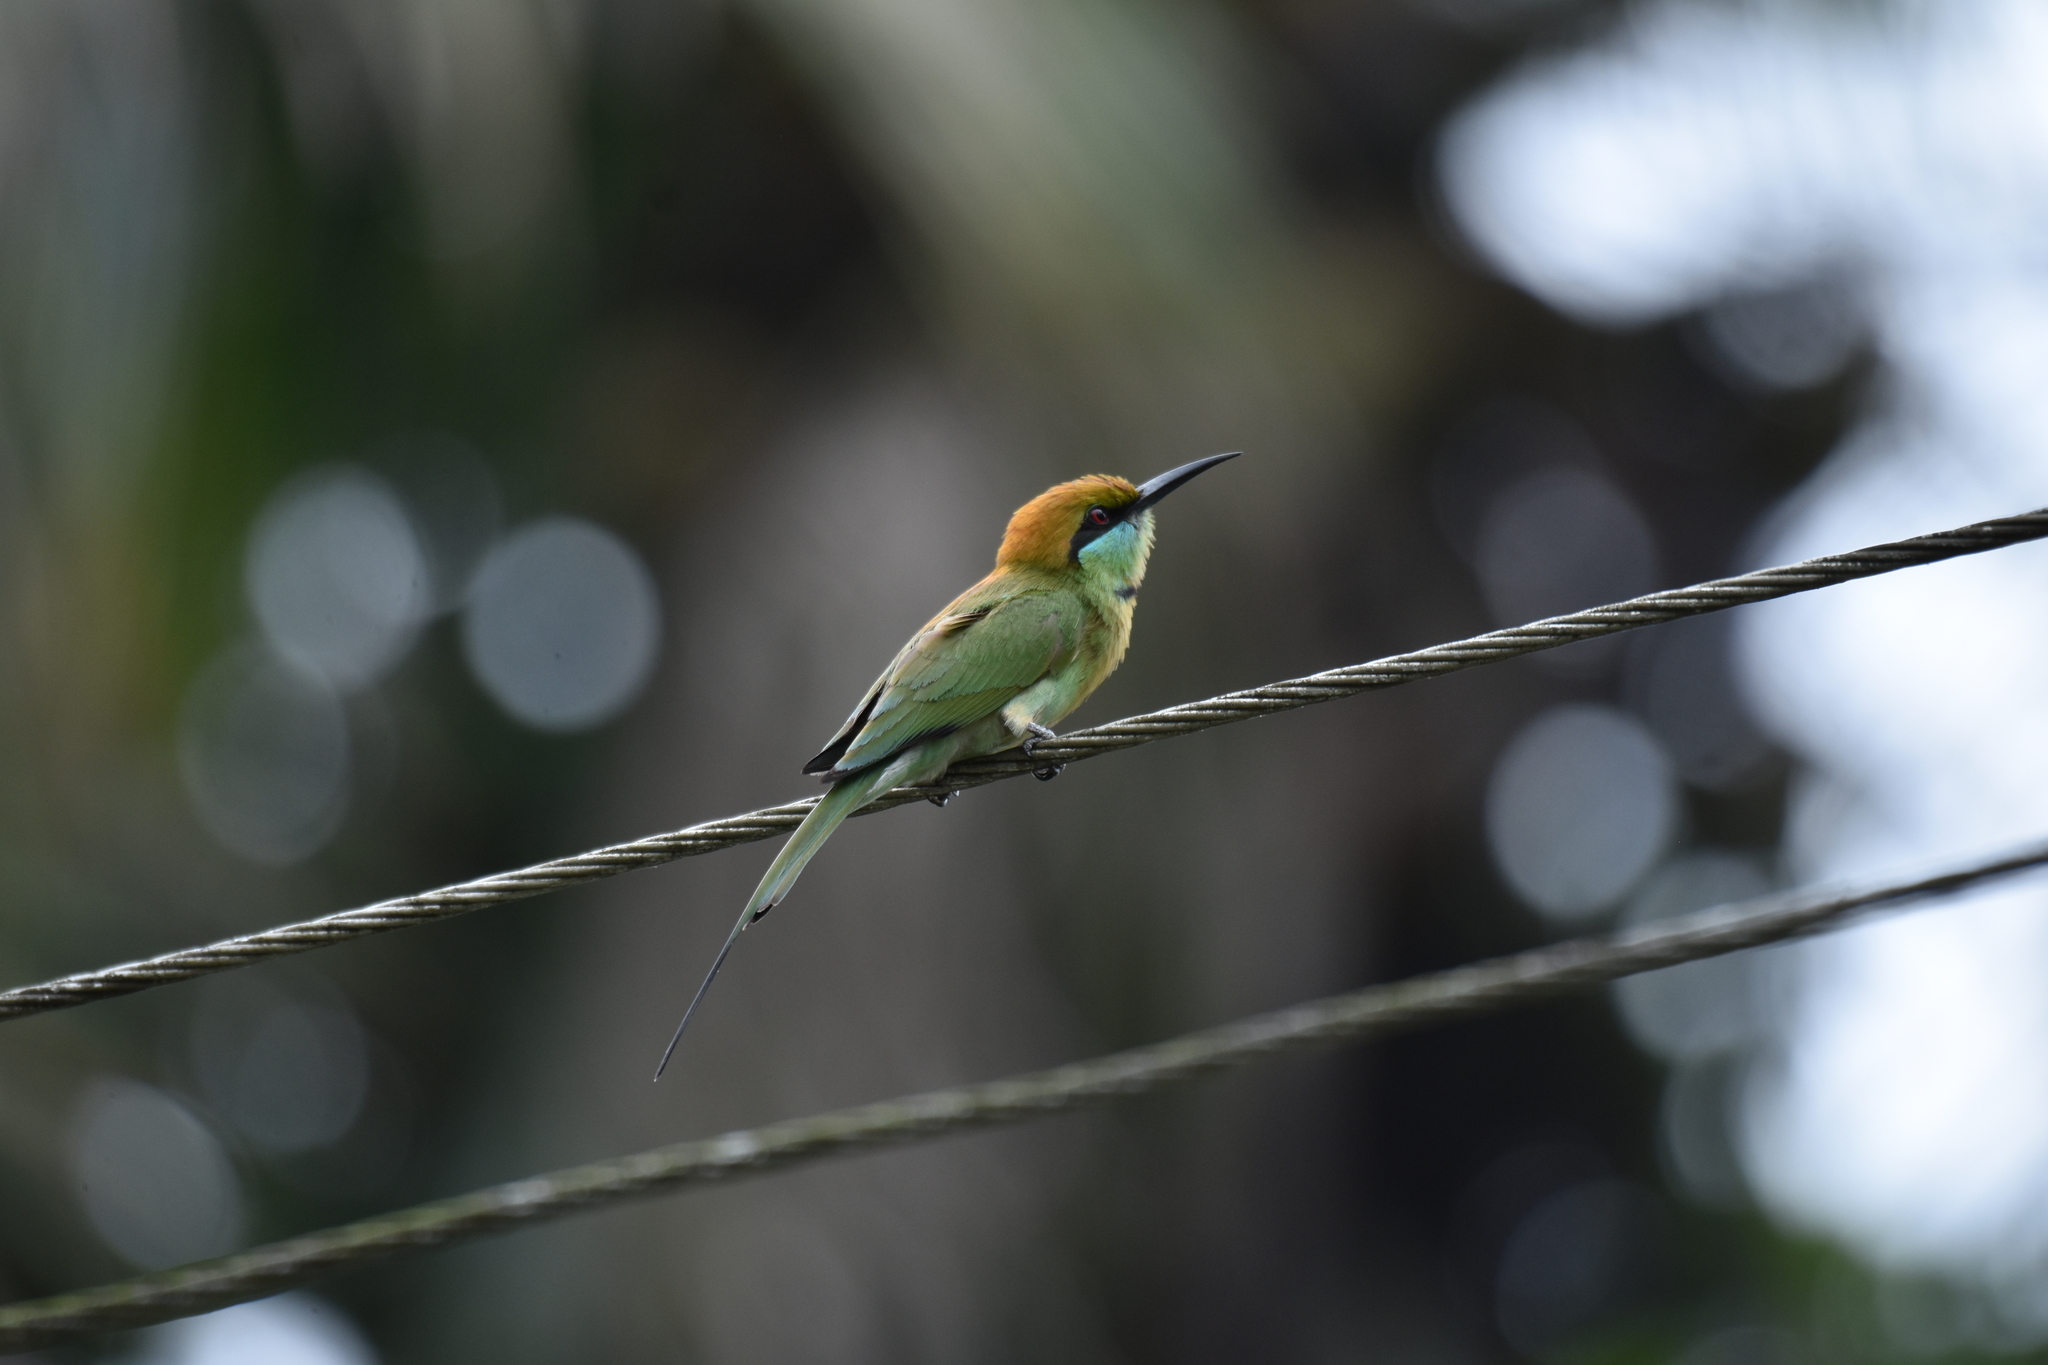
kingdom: Animalia
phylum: Chordata
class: Aves
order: Coraciiformes
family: Meropidae
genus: Merops
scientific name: Merops orientalis
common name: Green bee-eater
